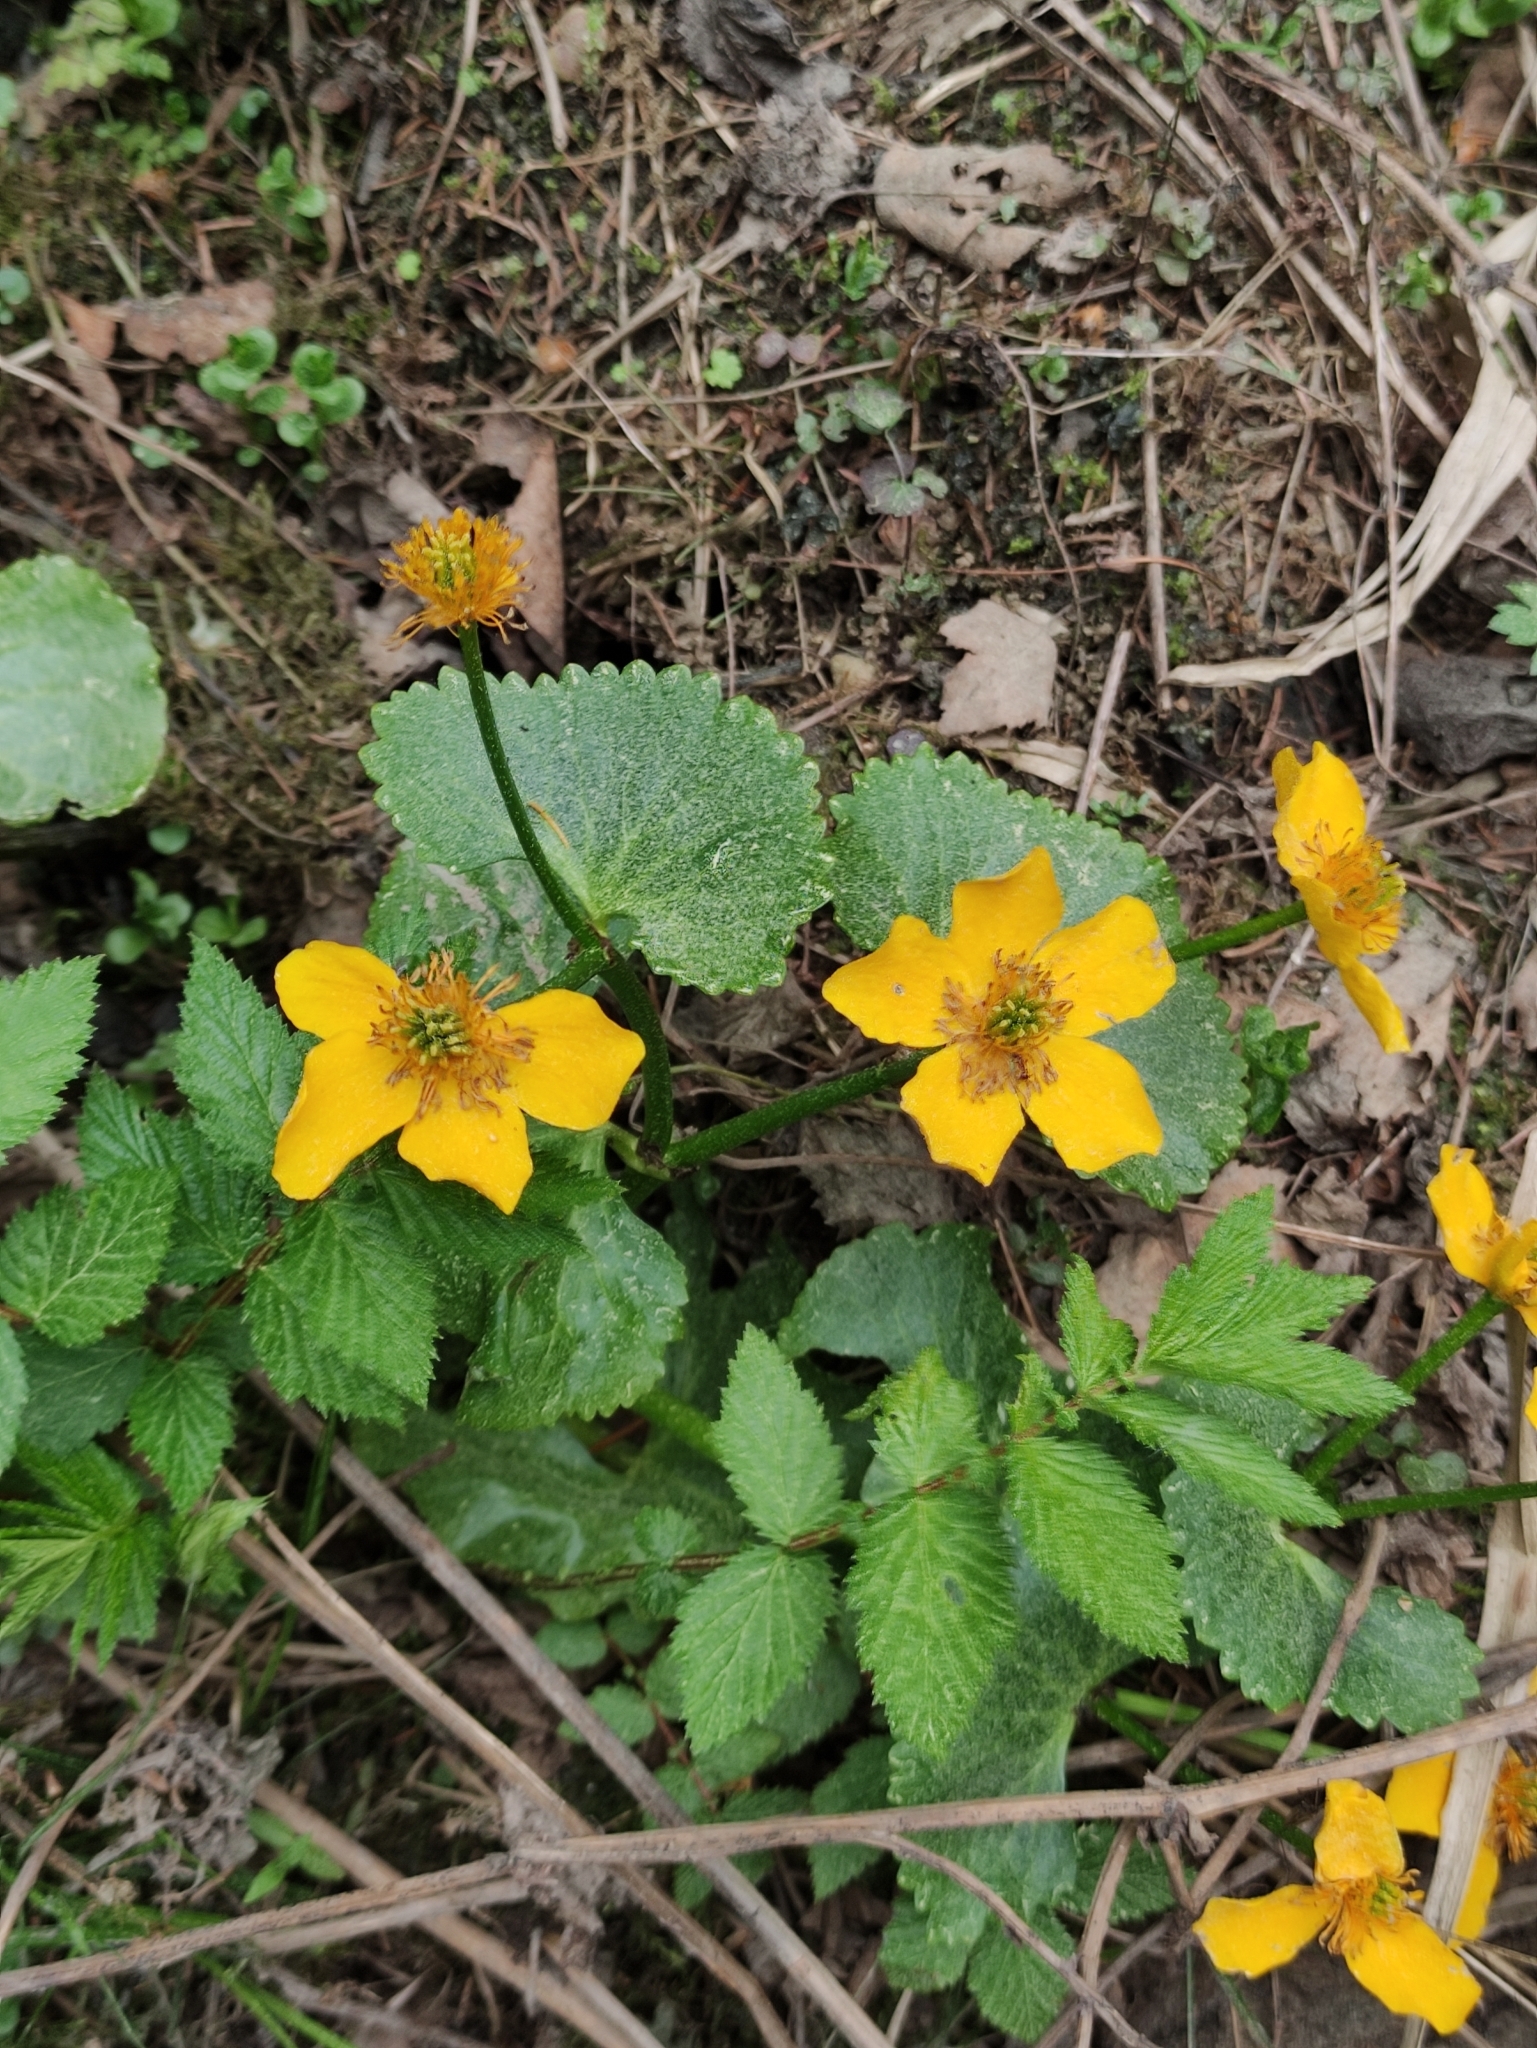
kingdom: Plantae
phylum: Tracheophyta
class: Magnoliopsida
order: Ranunculales
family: Ranunculaceae
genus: Caltha
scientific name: Caltha palustris
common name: Marsh marigold
